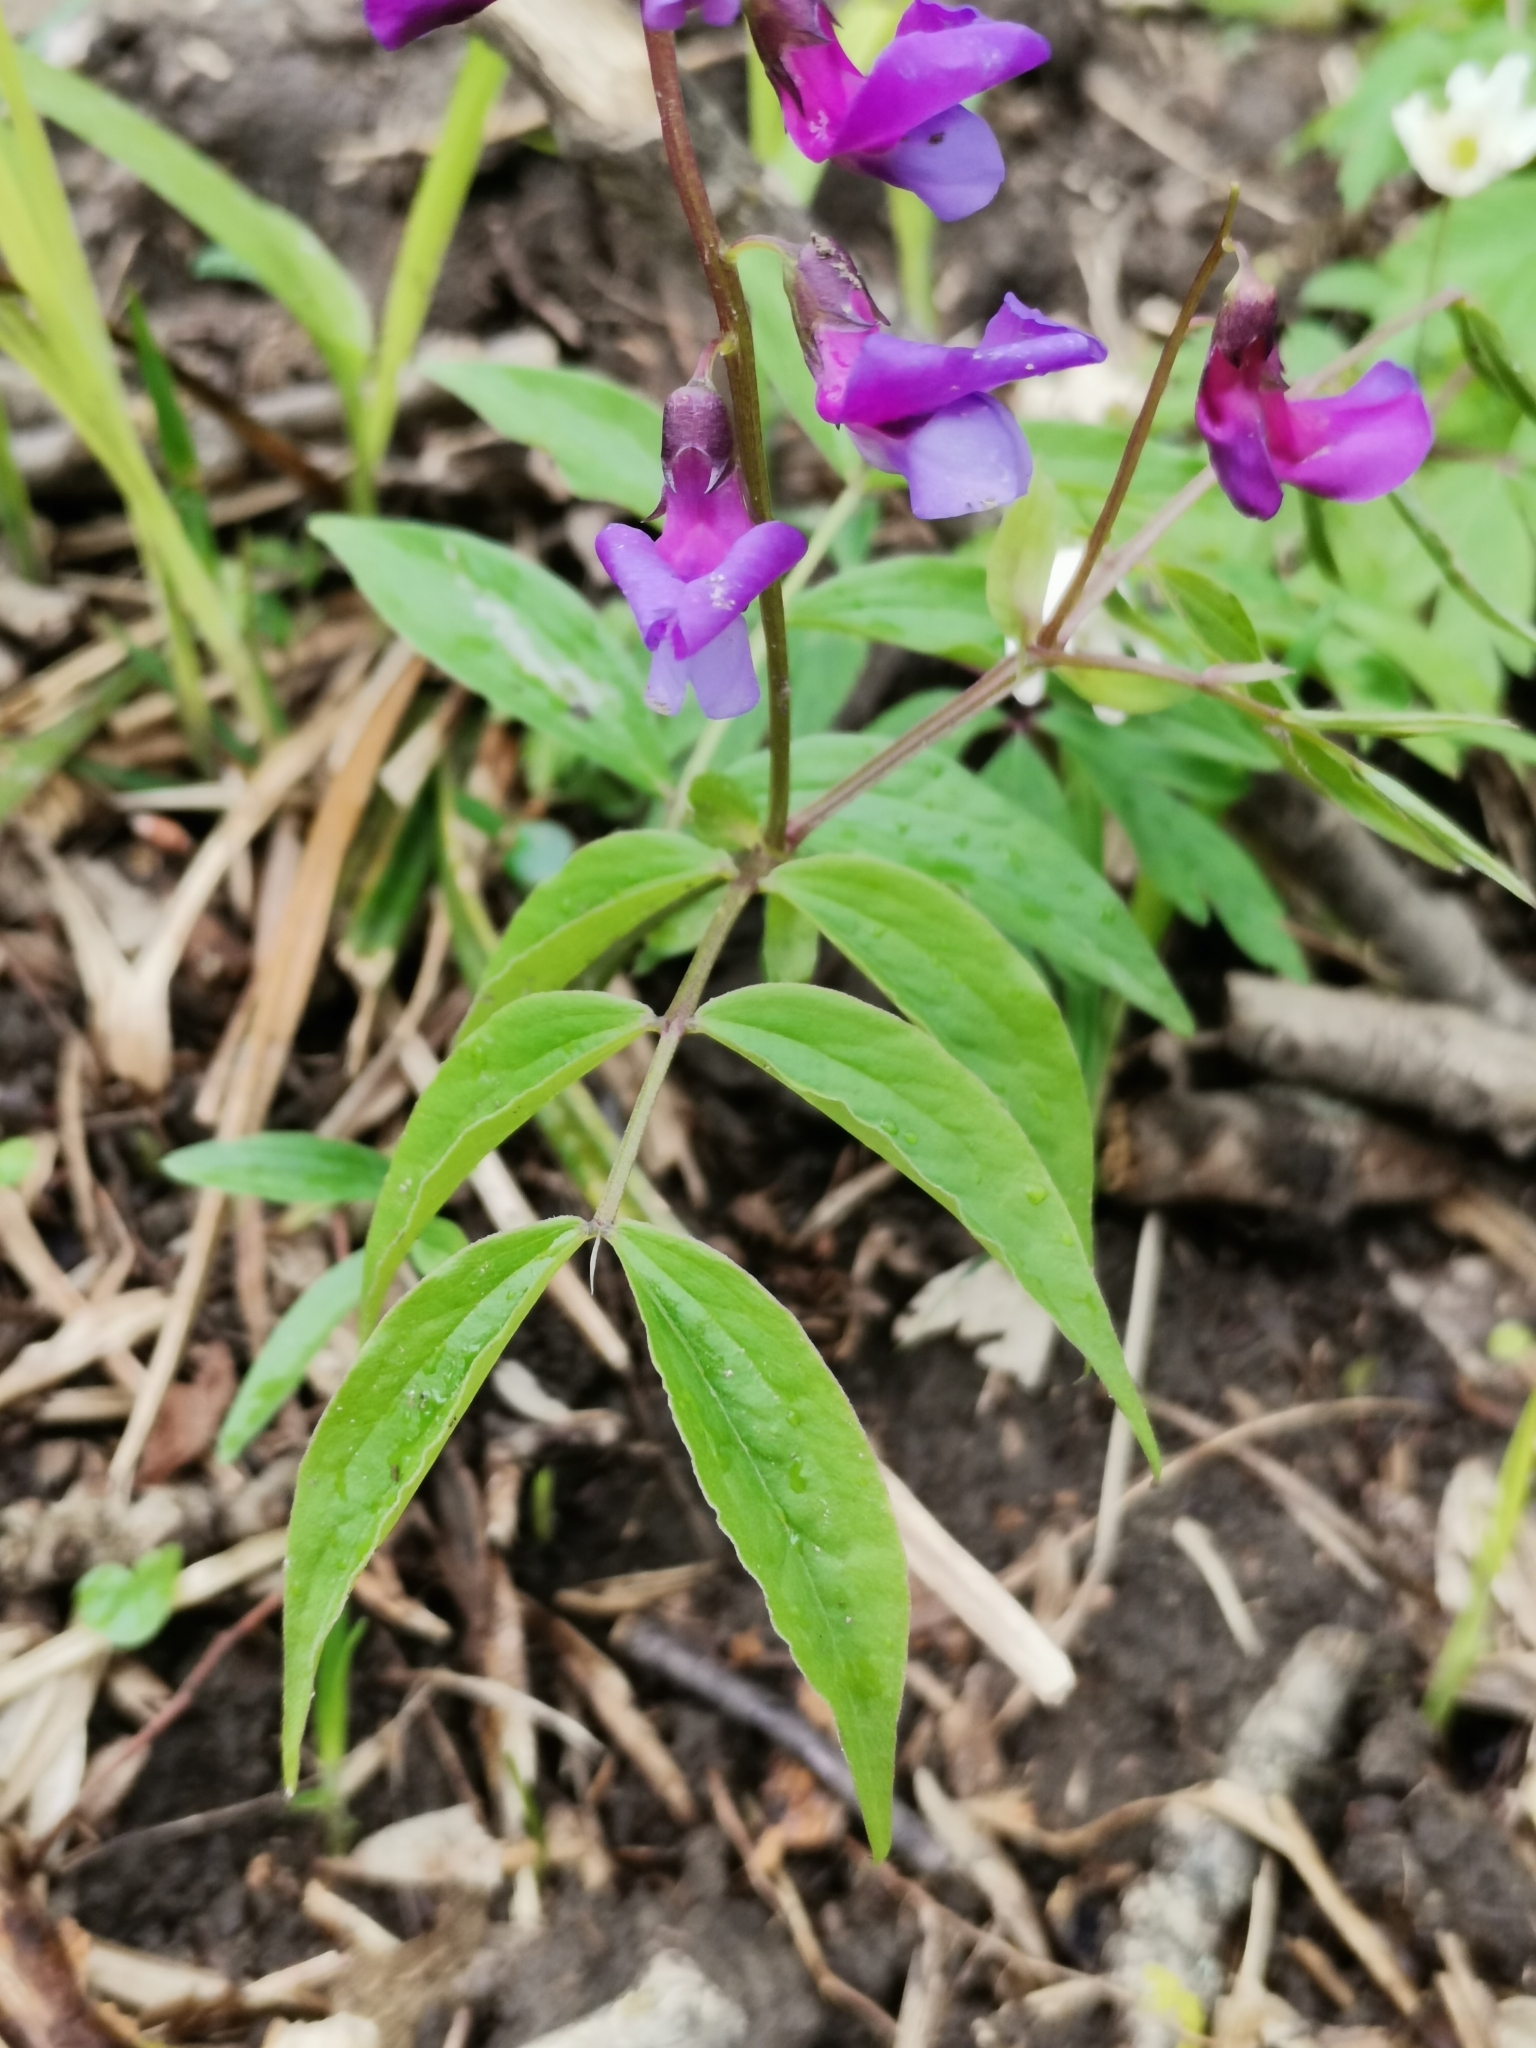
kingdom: Plantae
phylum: Tracheophyta
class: Magnoliopsida
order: Fabales
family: Fabaceae
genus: Lathyrus
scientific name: Lathyrus vernus
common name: Spring pea
